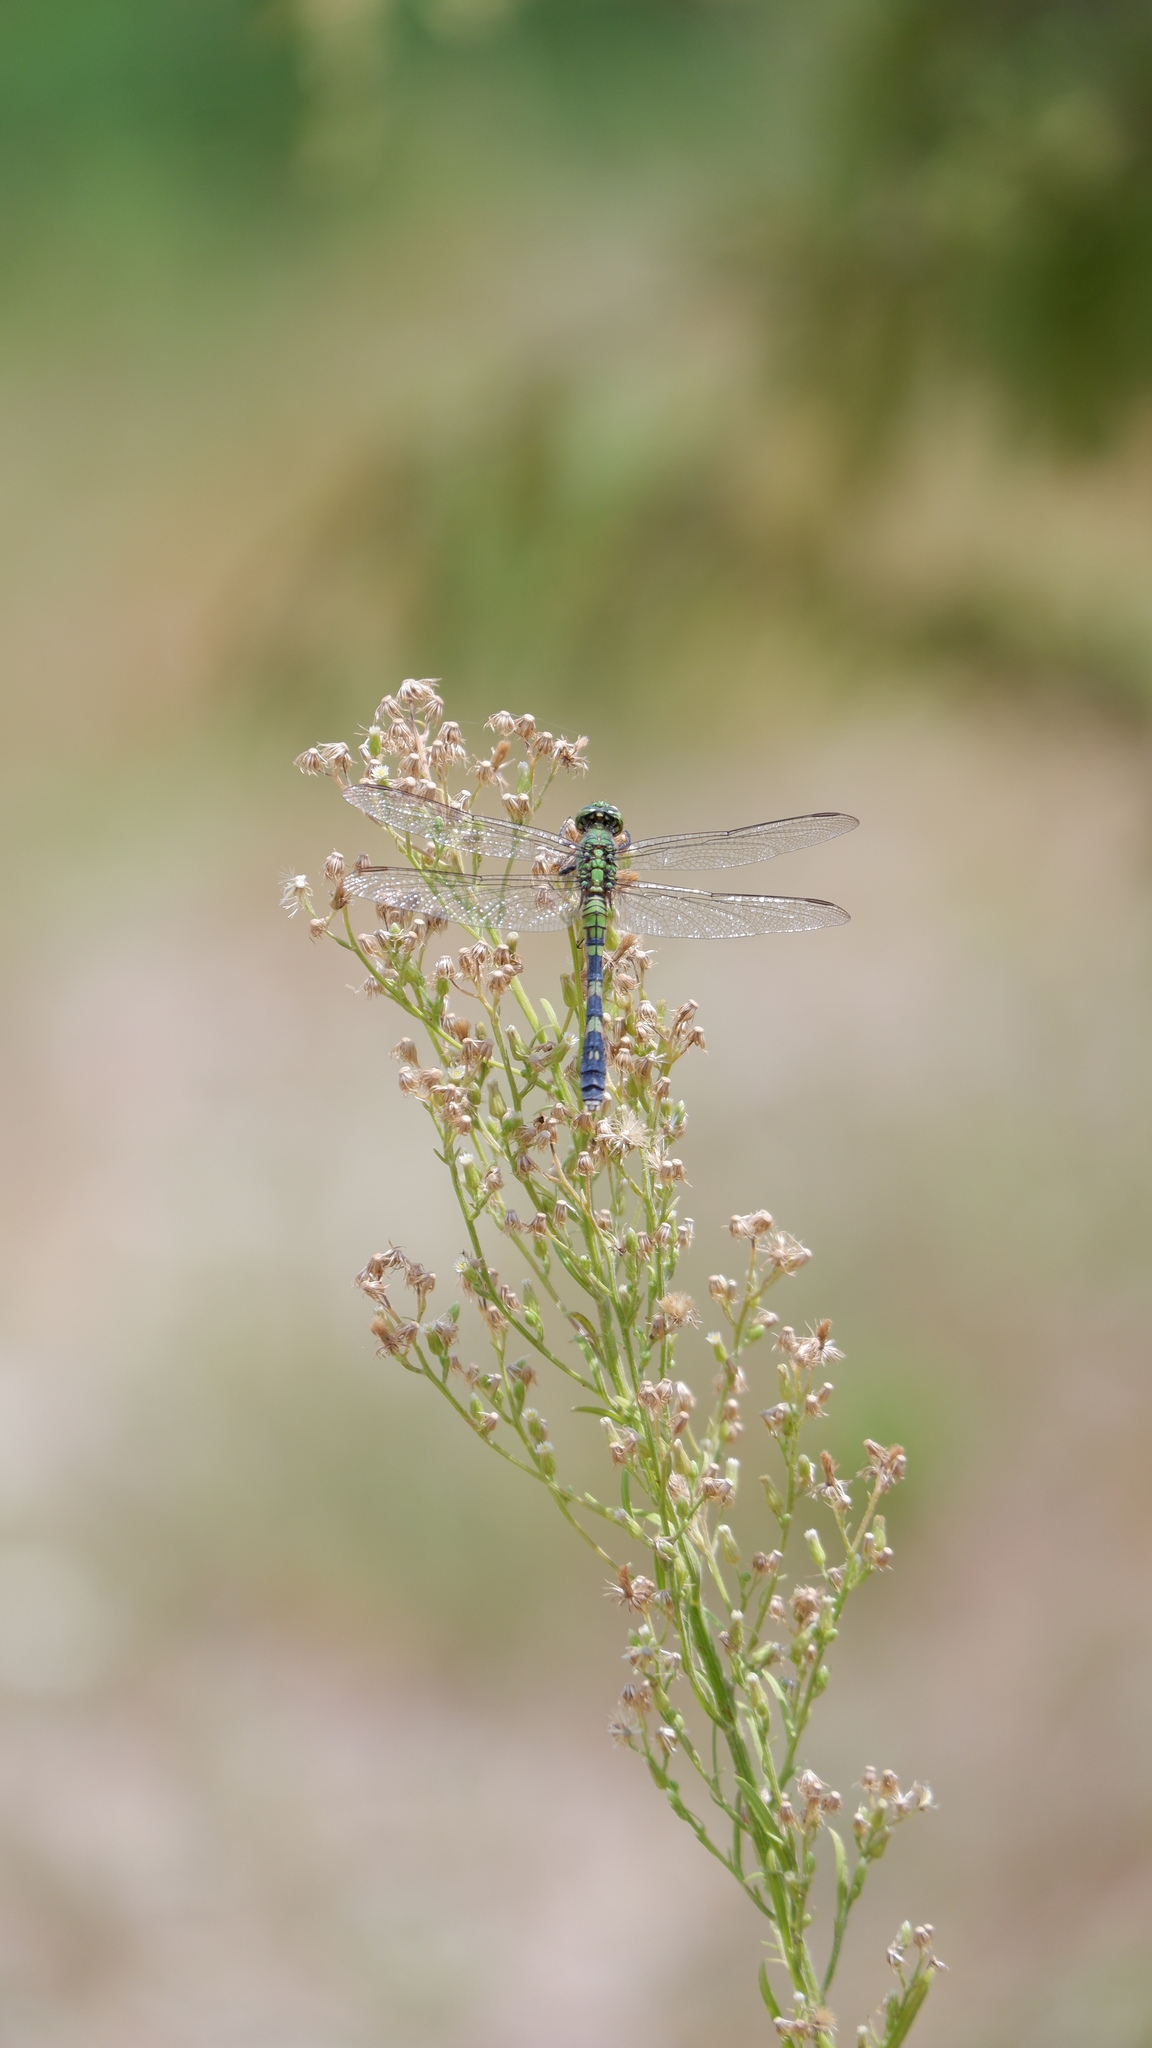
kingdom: Animalia
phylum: Arthropoda
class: Insecta
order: Odonata
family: Libellulidae
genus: Erythemis
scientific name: Erythemis simplicicollis
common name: Eastern pondhawk
